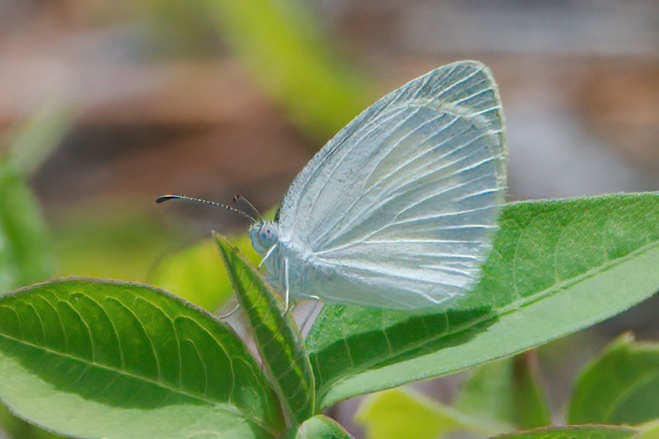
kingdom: Animalia
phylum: Arthropoda
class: Insecta
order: Lepidoptera
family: Pieridae
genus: Eurema
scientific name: Eurema daira
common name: Barred sulphur
